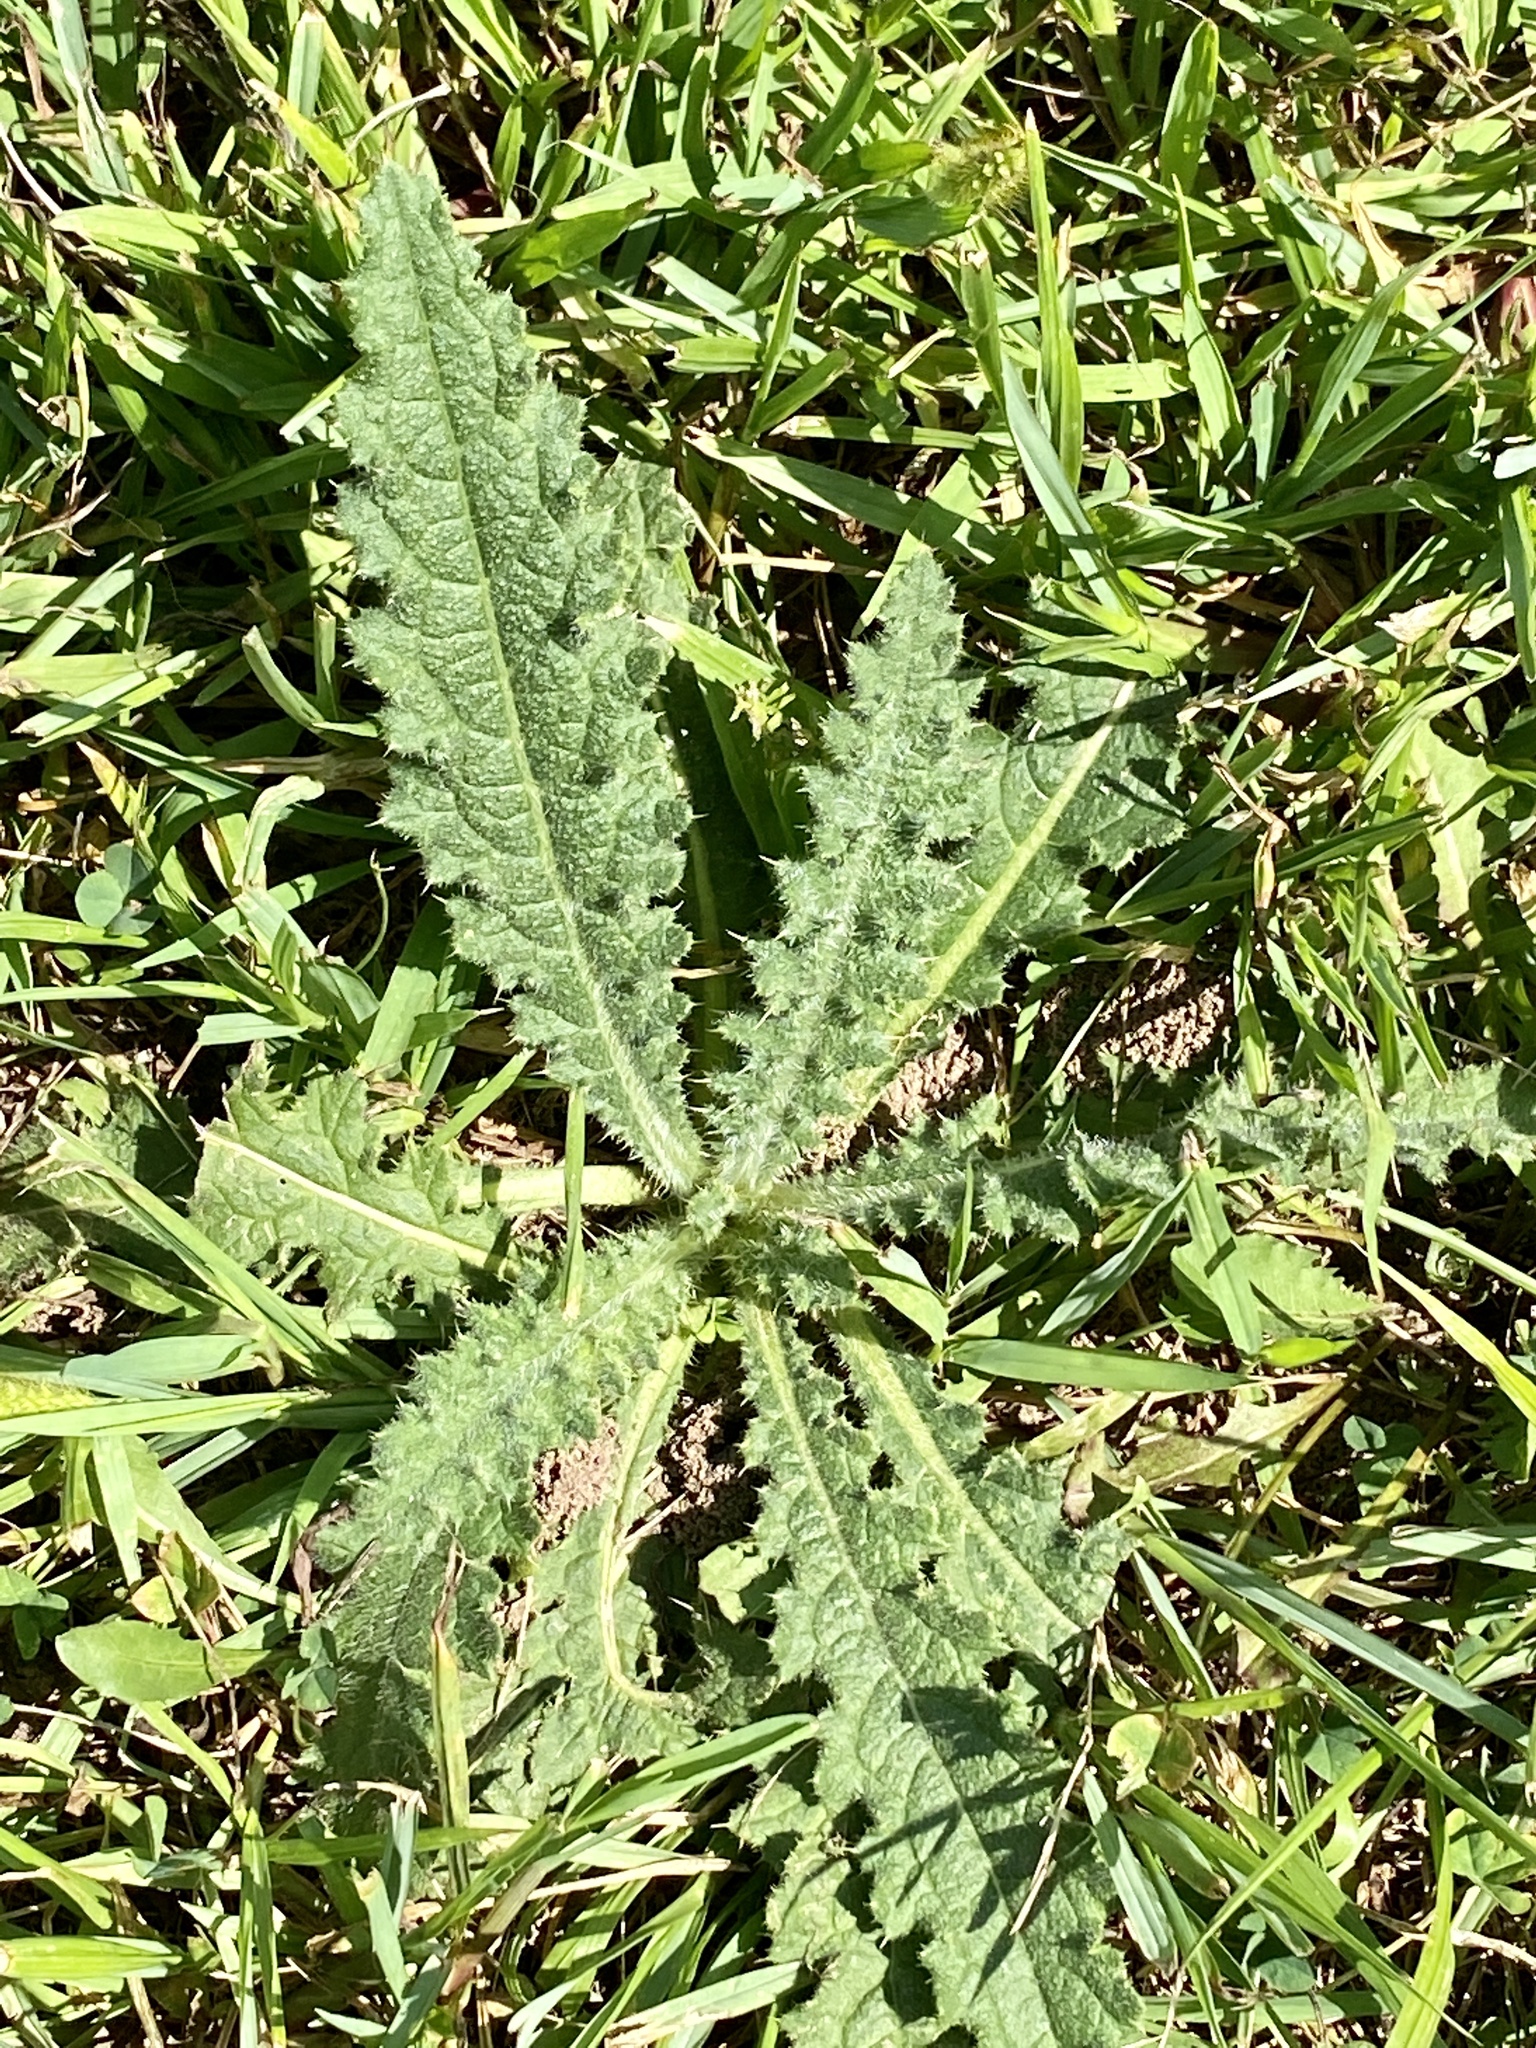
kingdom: Plantae
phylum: Tracheophyta
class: Magnoliopsida
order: Asterales
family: Asteraceae
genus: Cirsium
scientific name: Cirsium vulgare
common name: Bull thistle
